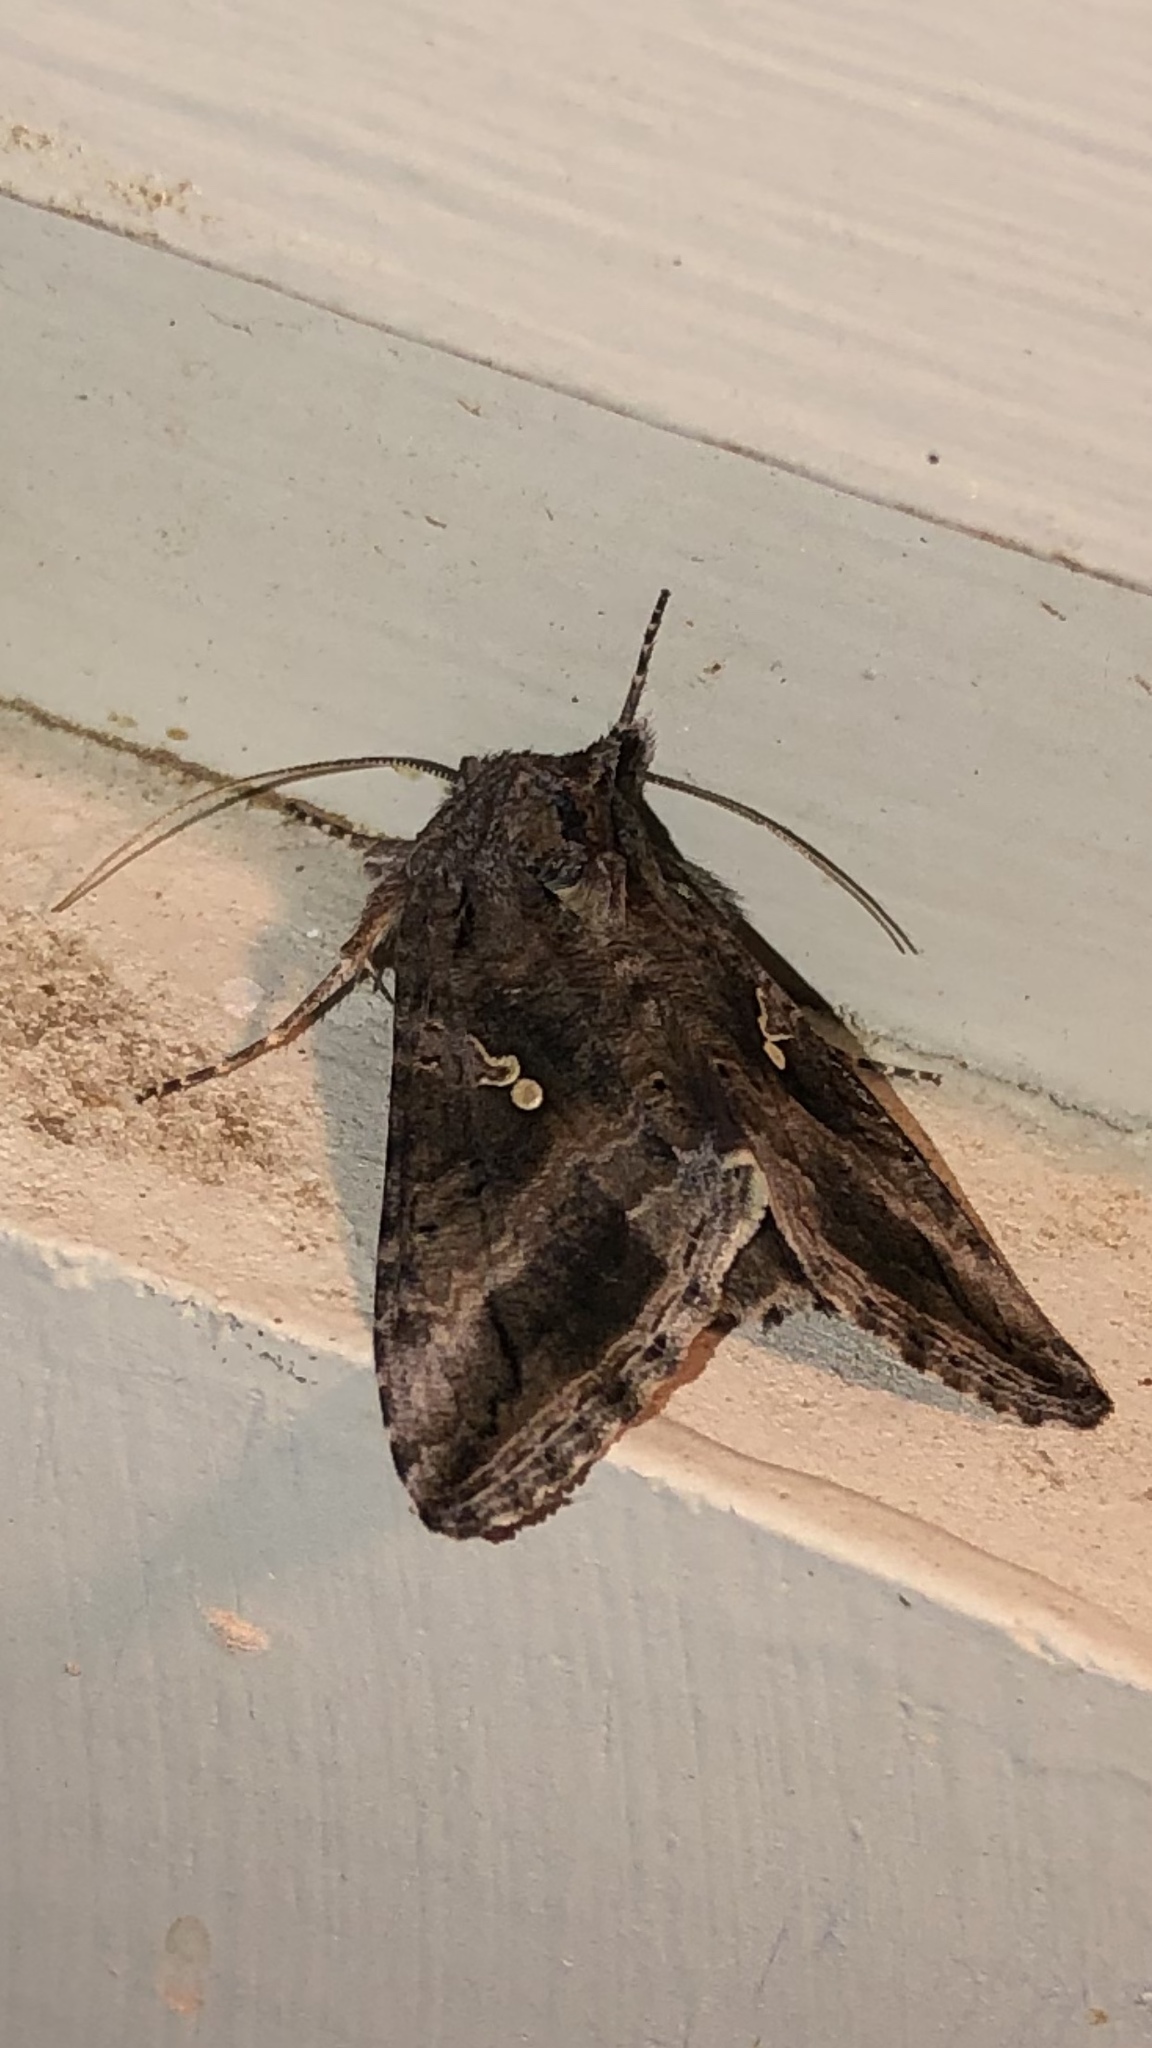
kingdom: Animalia
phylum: Arthropoda
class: Insecta
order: Lepidoptera
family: Noctuidae
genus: Rachiplusia
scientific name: Rachiplusia ou
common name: Gray looper moth
